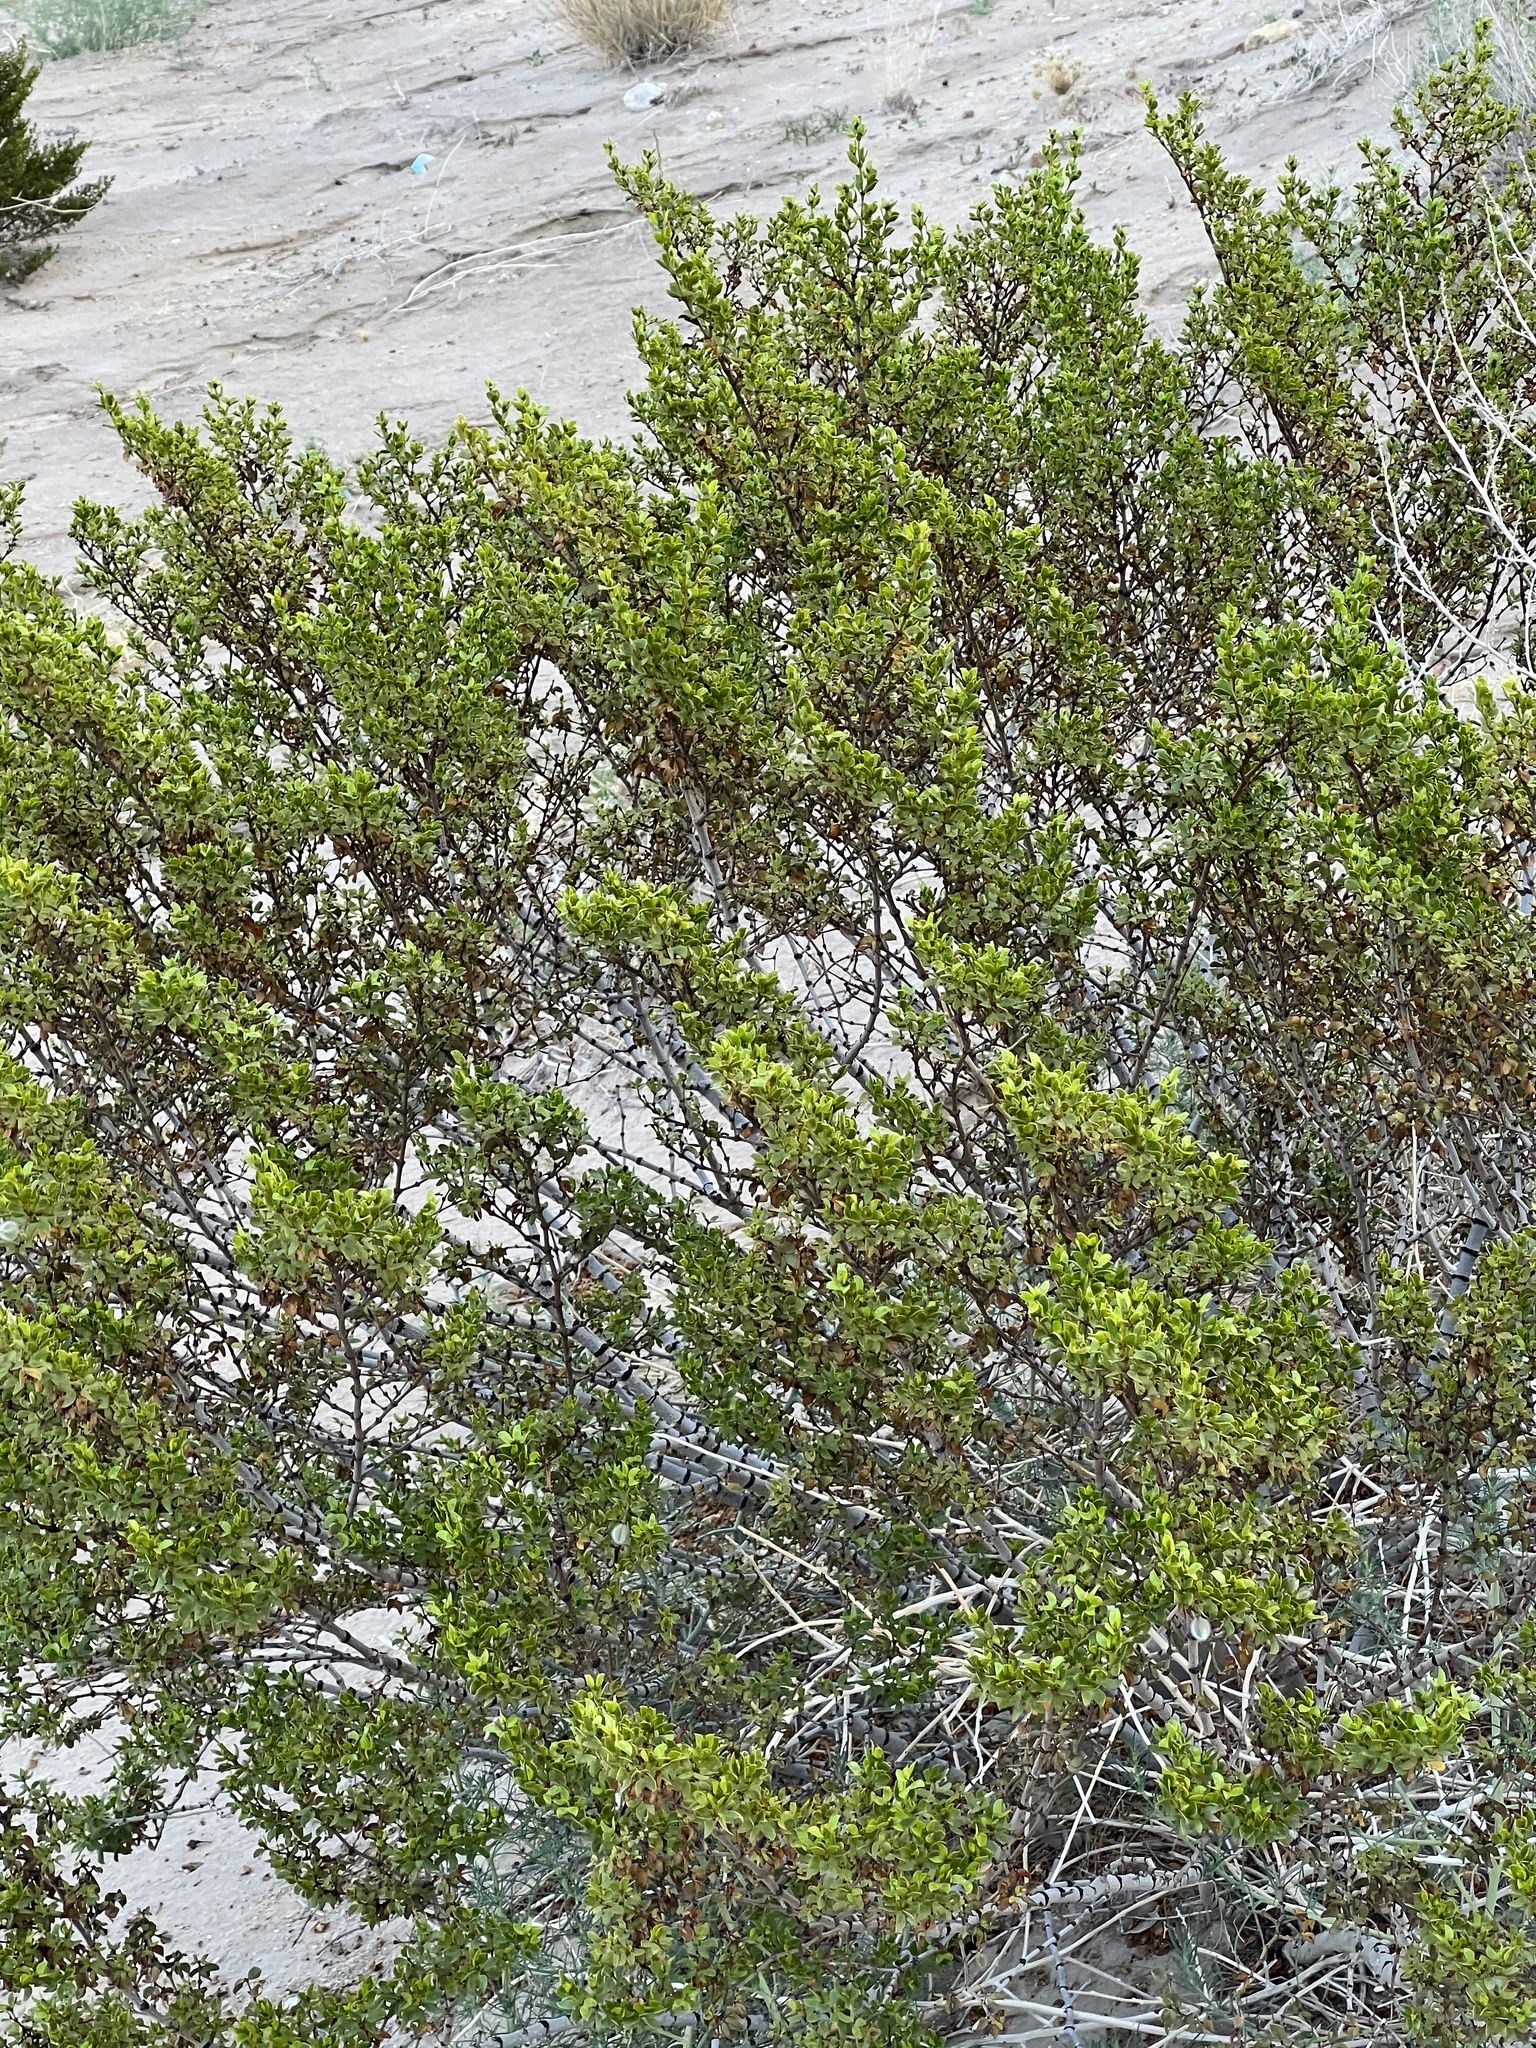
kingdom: Plantae
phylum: Tracheophyta
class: Magnoliopsida
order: Zygophyllales
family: Zygophyllaceae
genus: Larrea
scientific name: Larrea tridentata
